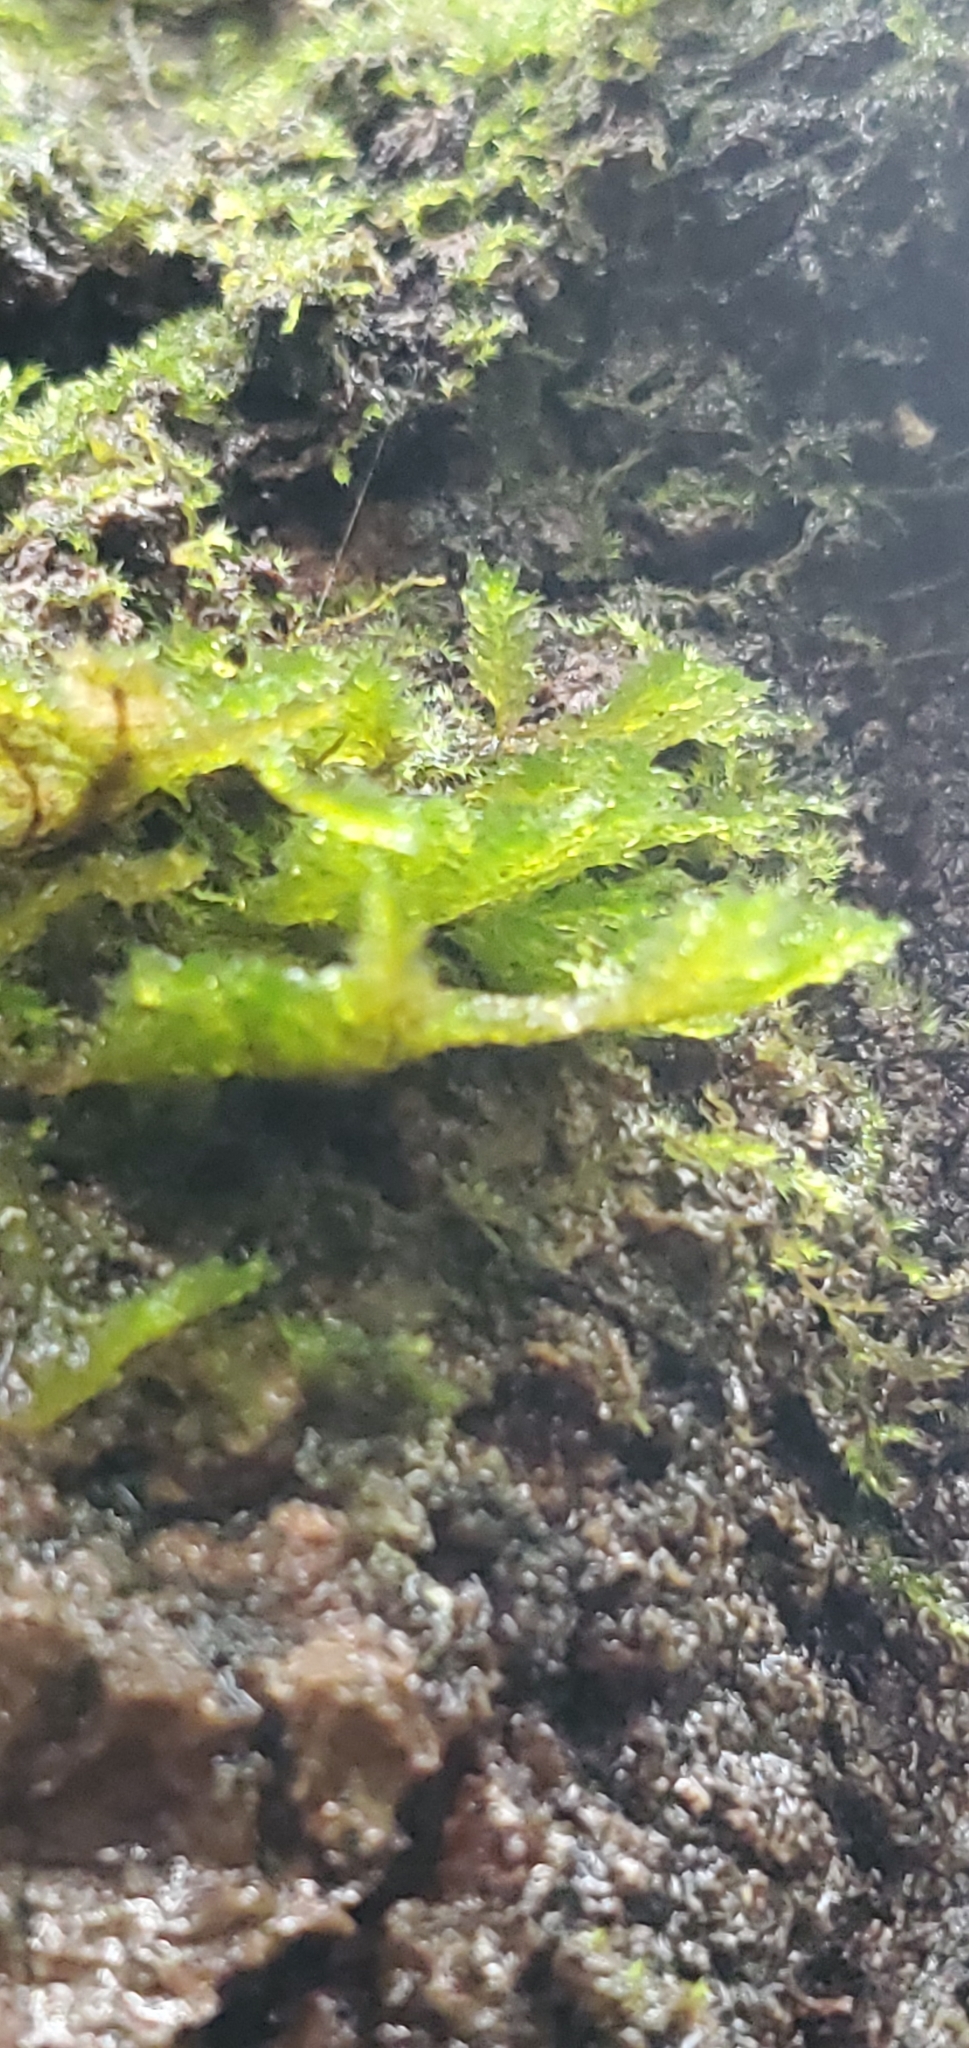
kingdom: Plantae
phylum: Bryophyta
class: Bryopsida
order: Hypnales
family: Neckeraceae
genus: Neckera
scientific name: Neckera pennata
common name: Feathery neckera
